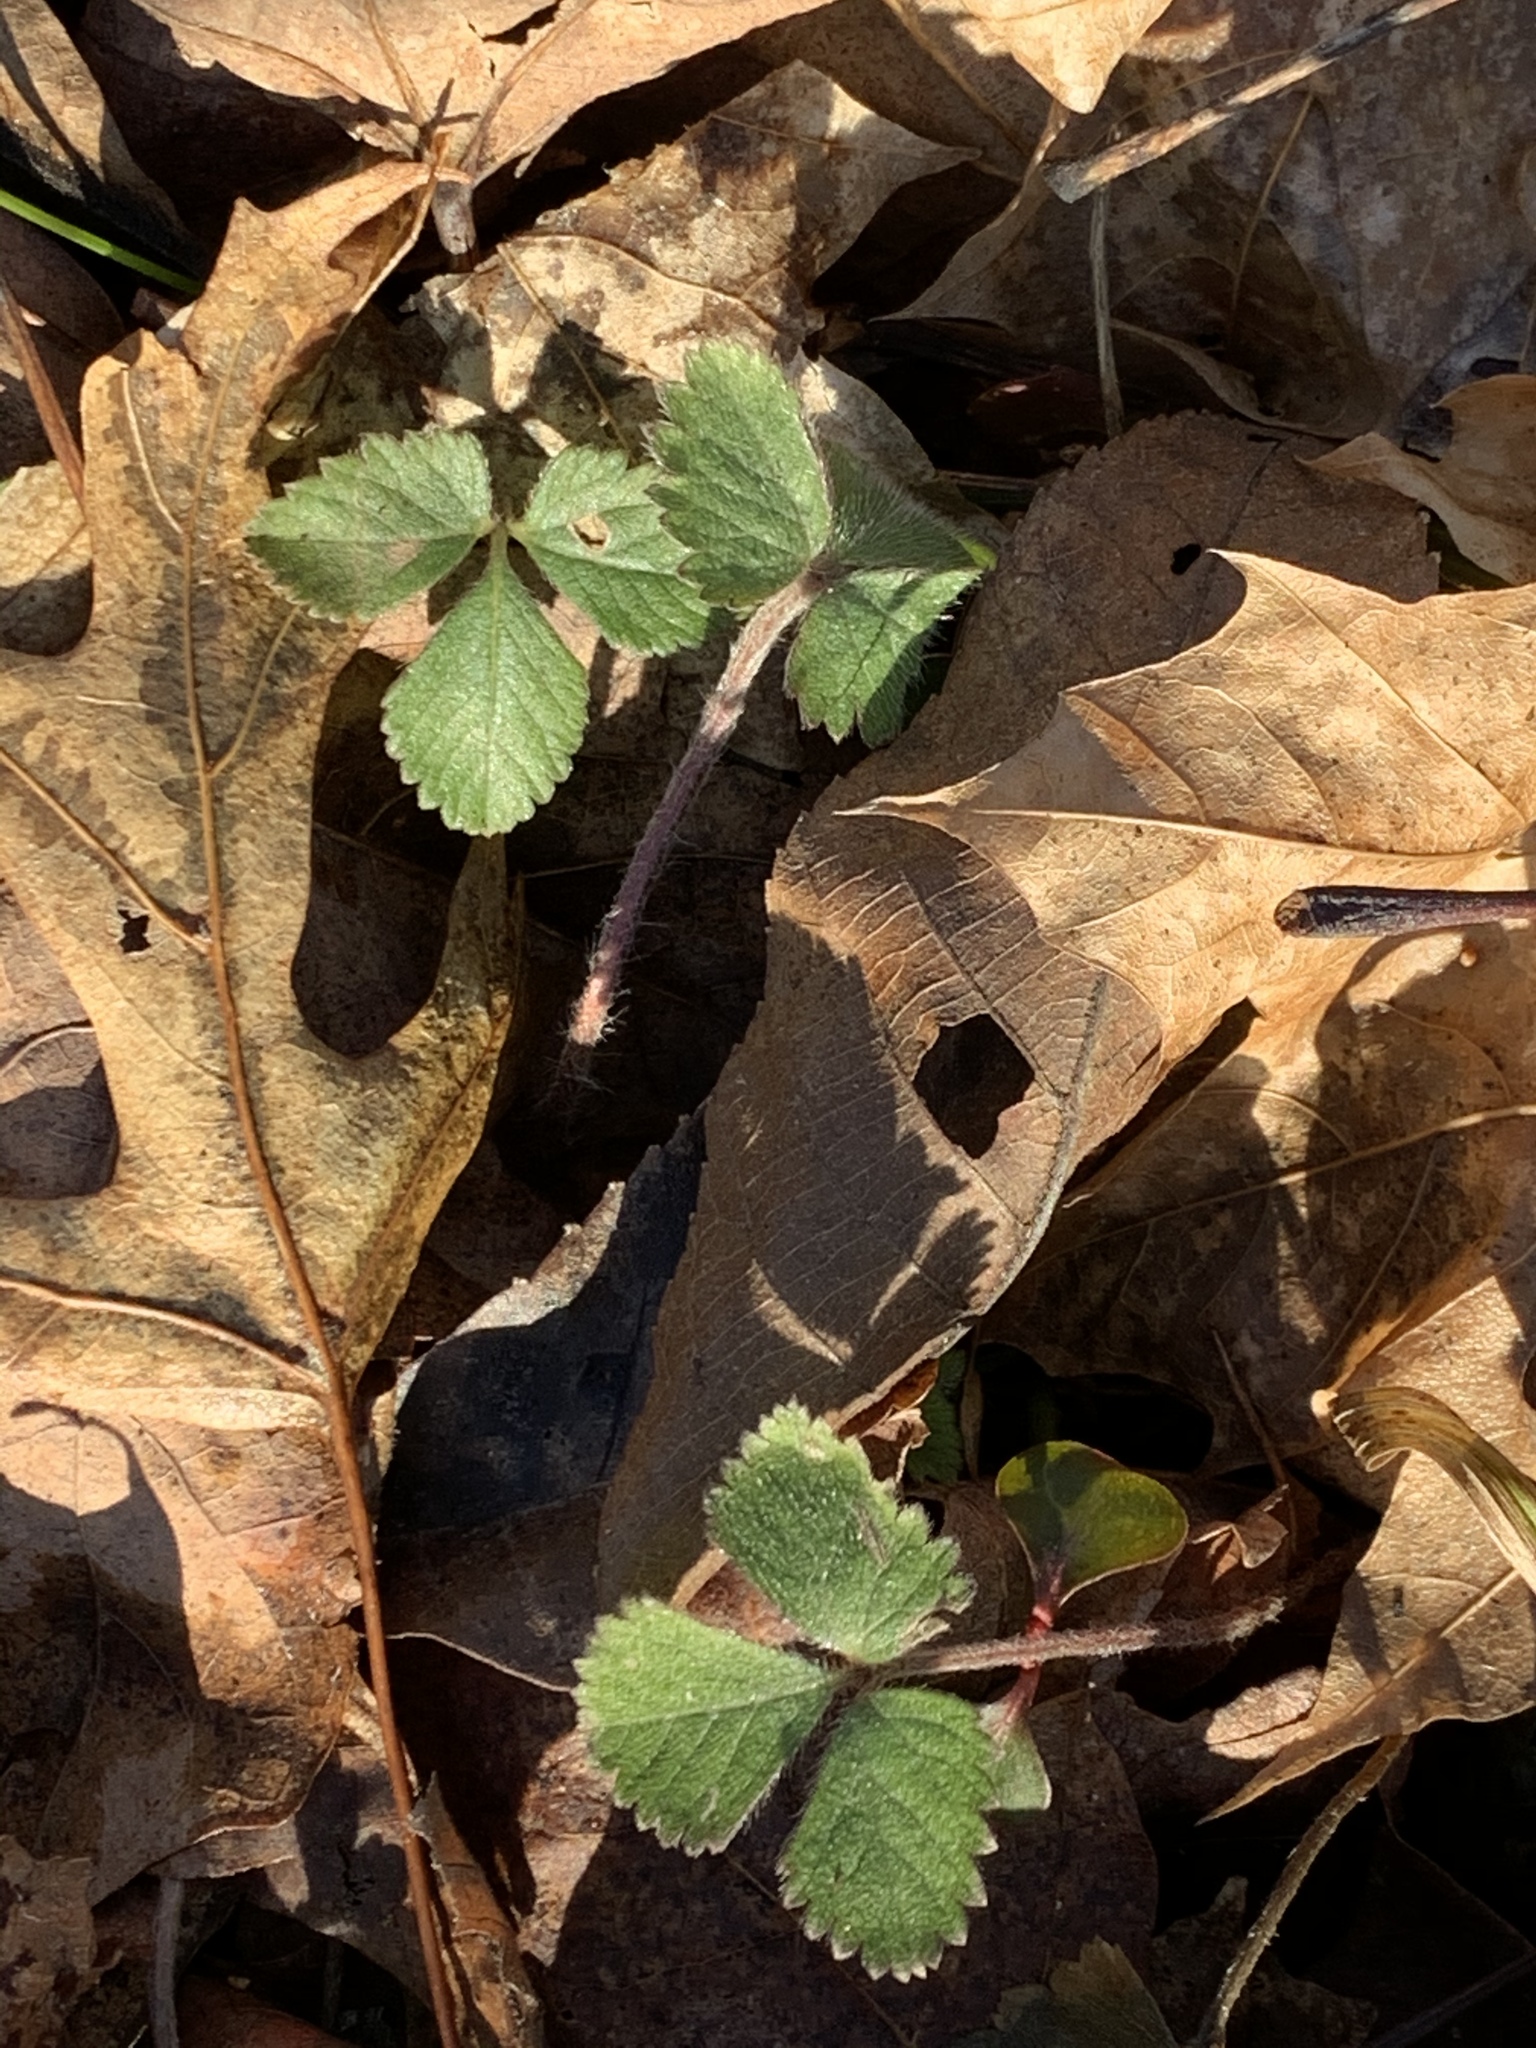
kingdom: Plantae
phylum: Tracheophyta
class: Magnoliopsida
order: Rosales
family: Rosaceae
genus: Potentilla
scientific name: Potentilla indica
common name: Yellow-flowered strawberry
